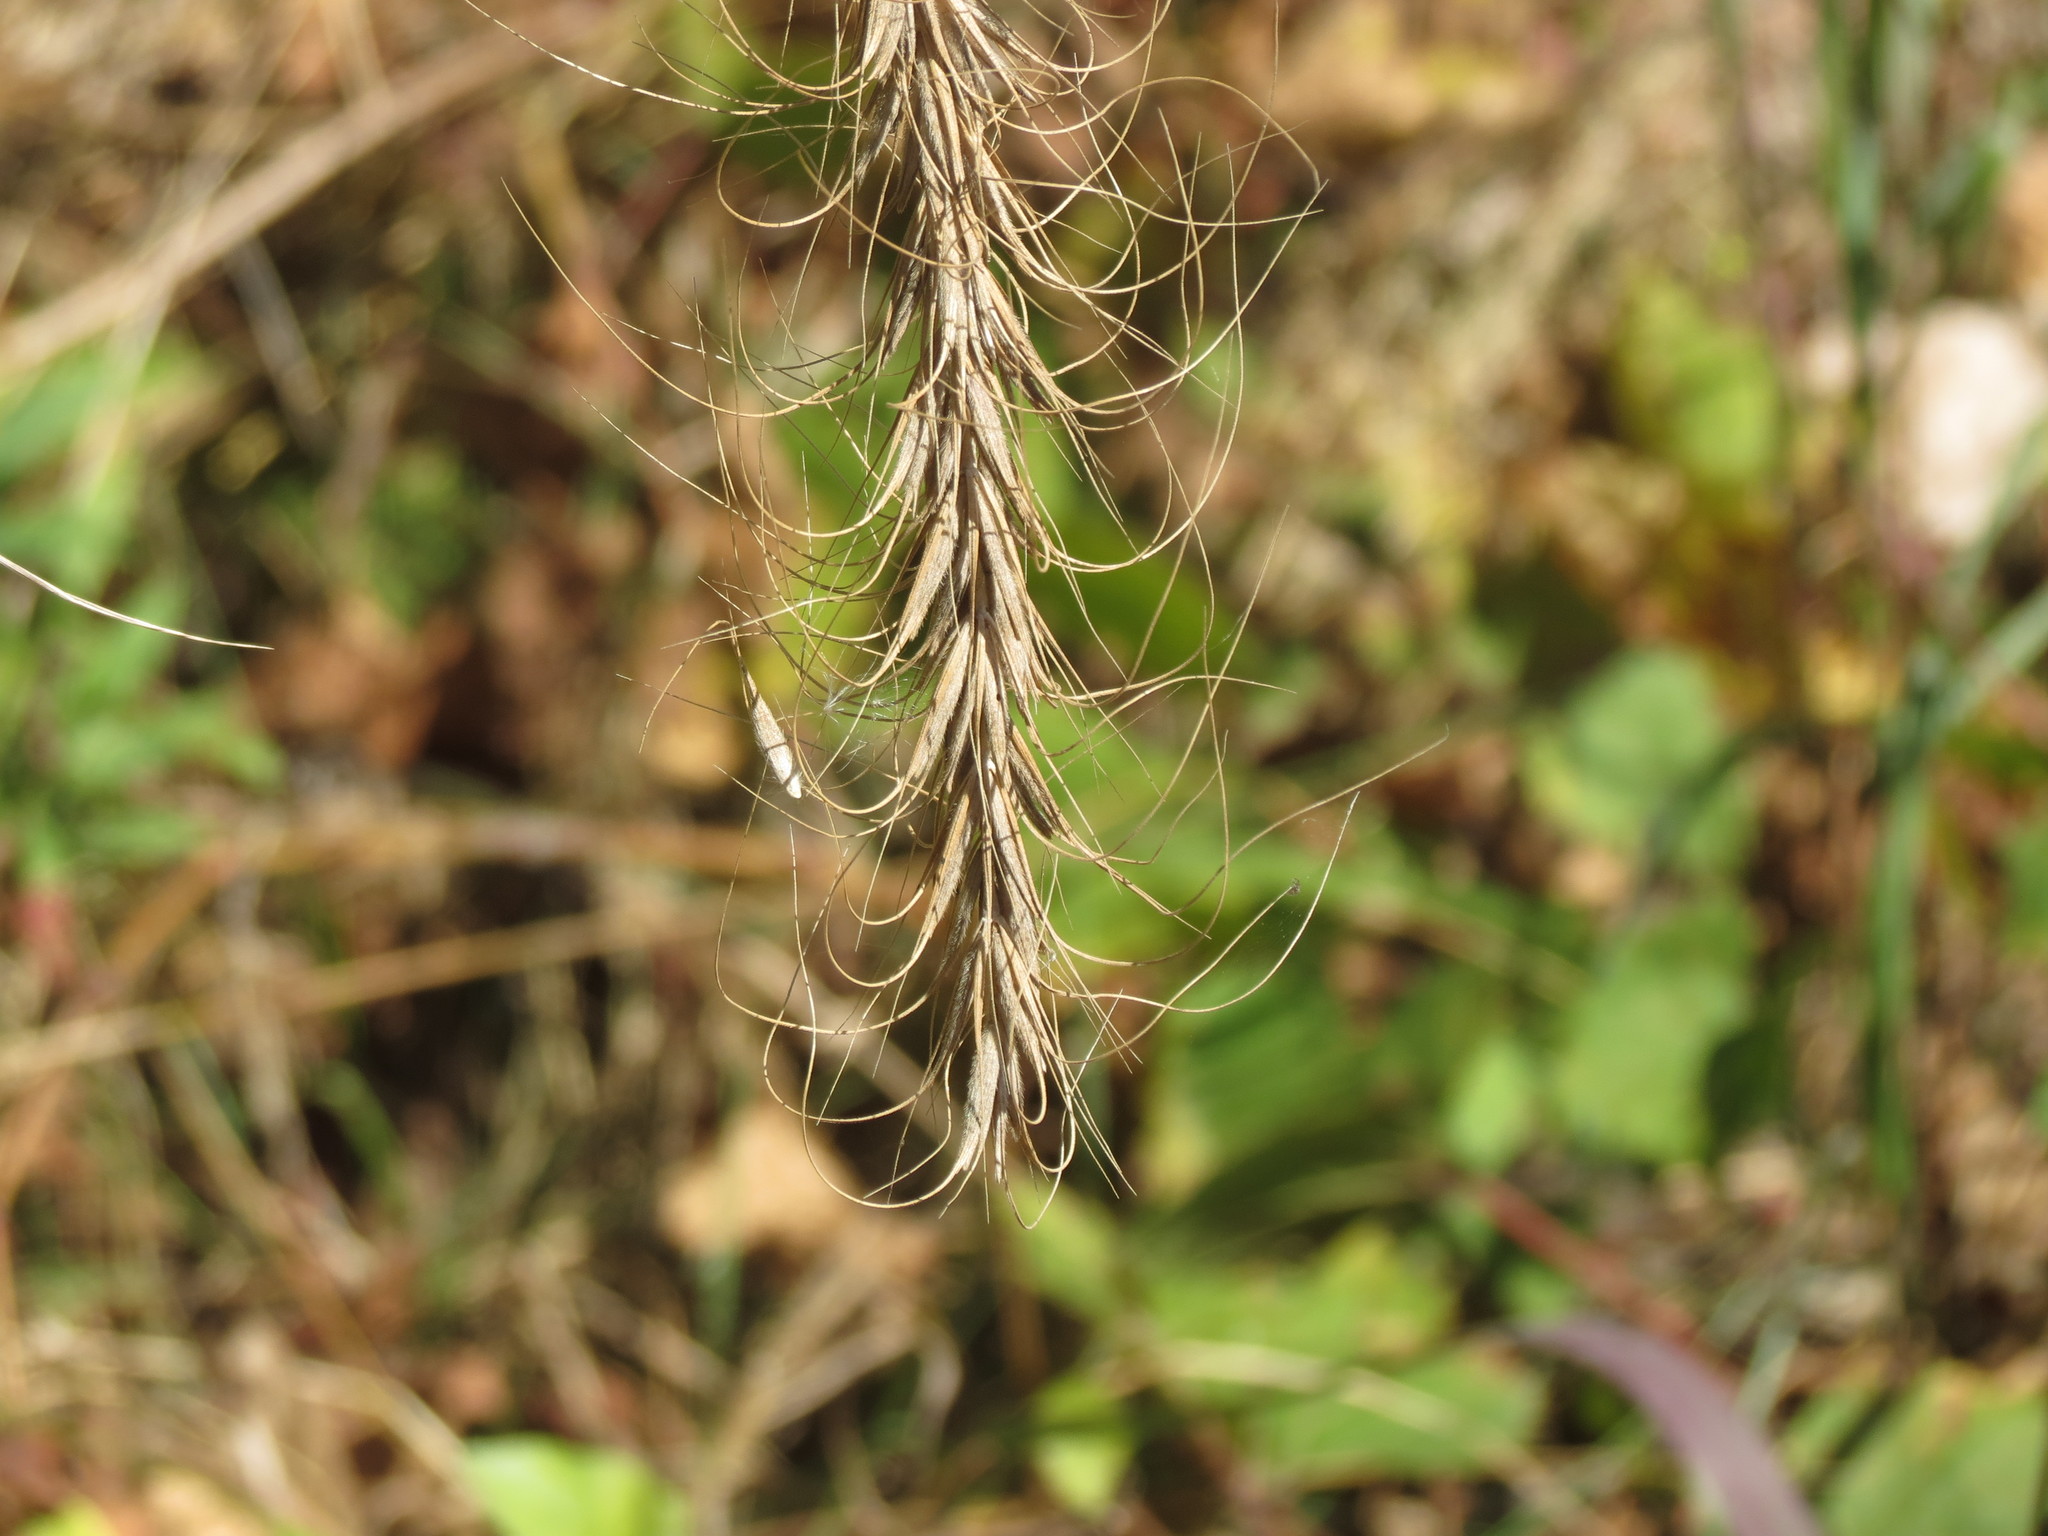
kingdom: Plantae
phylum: Tracheophyta
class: Liliopsida
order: Poales
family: Poaceae
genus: Elymus
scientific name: Elymus canadensis
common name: Canada wild rye
